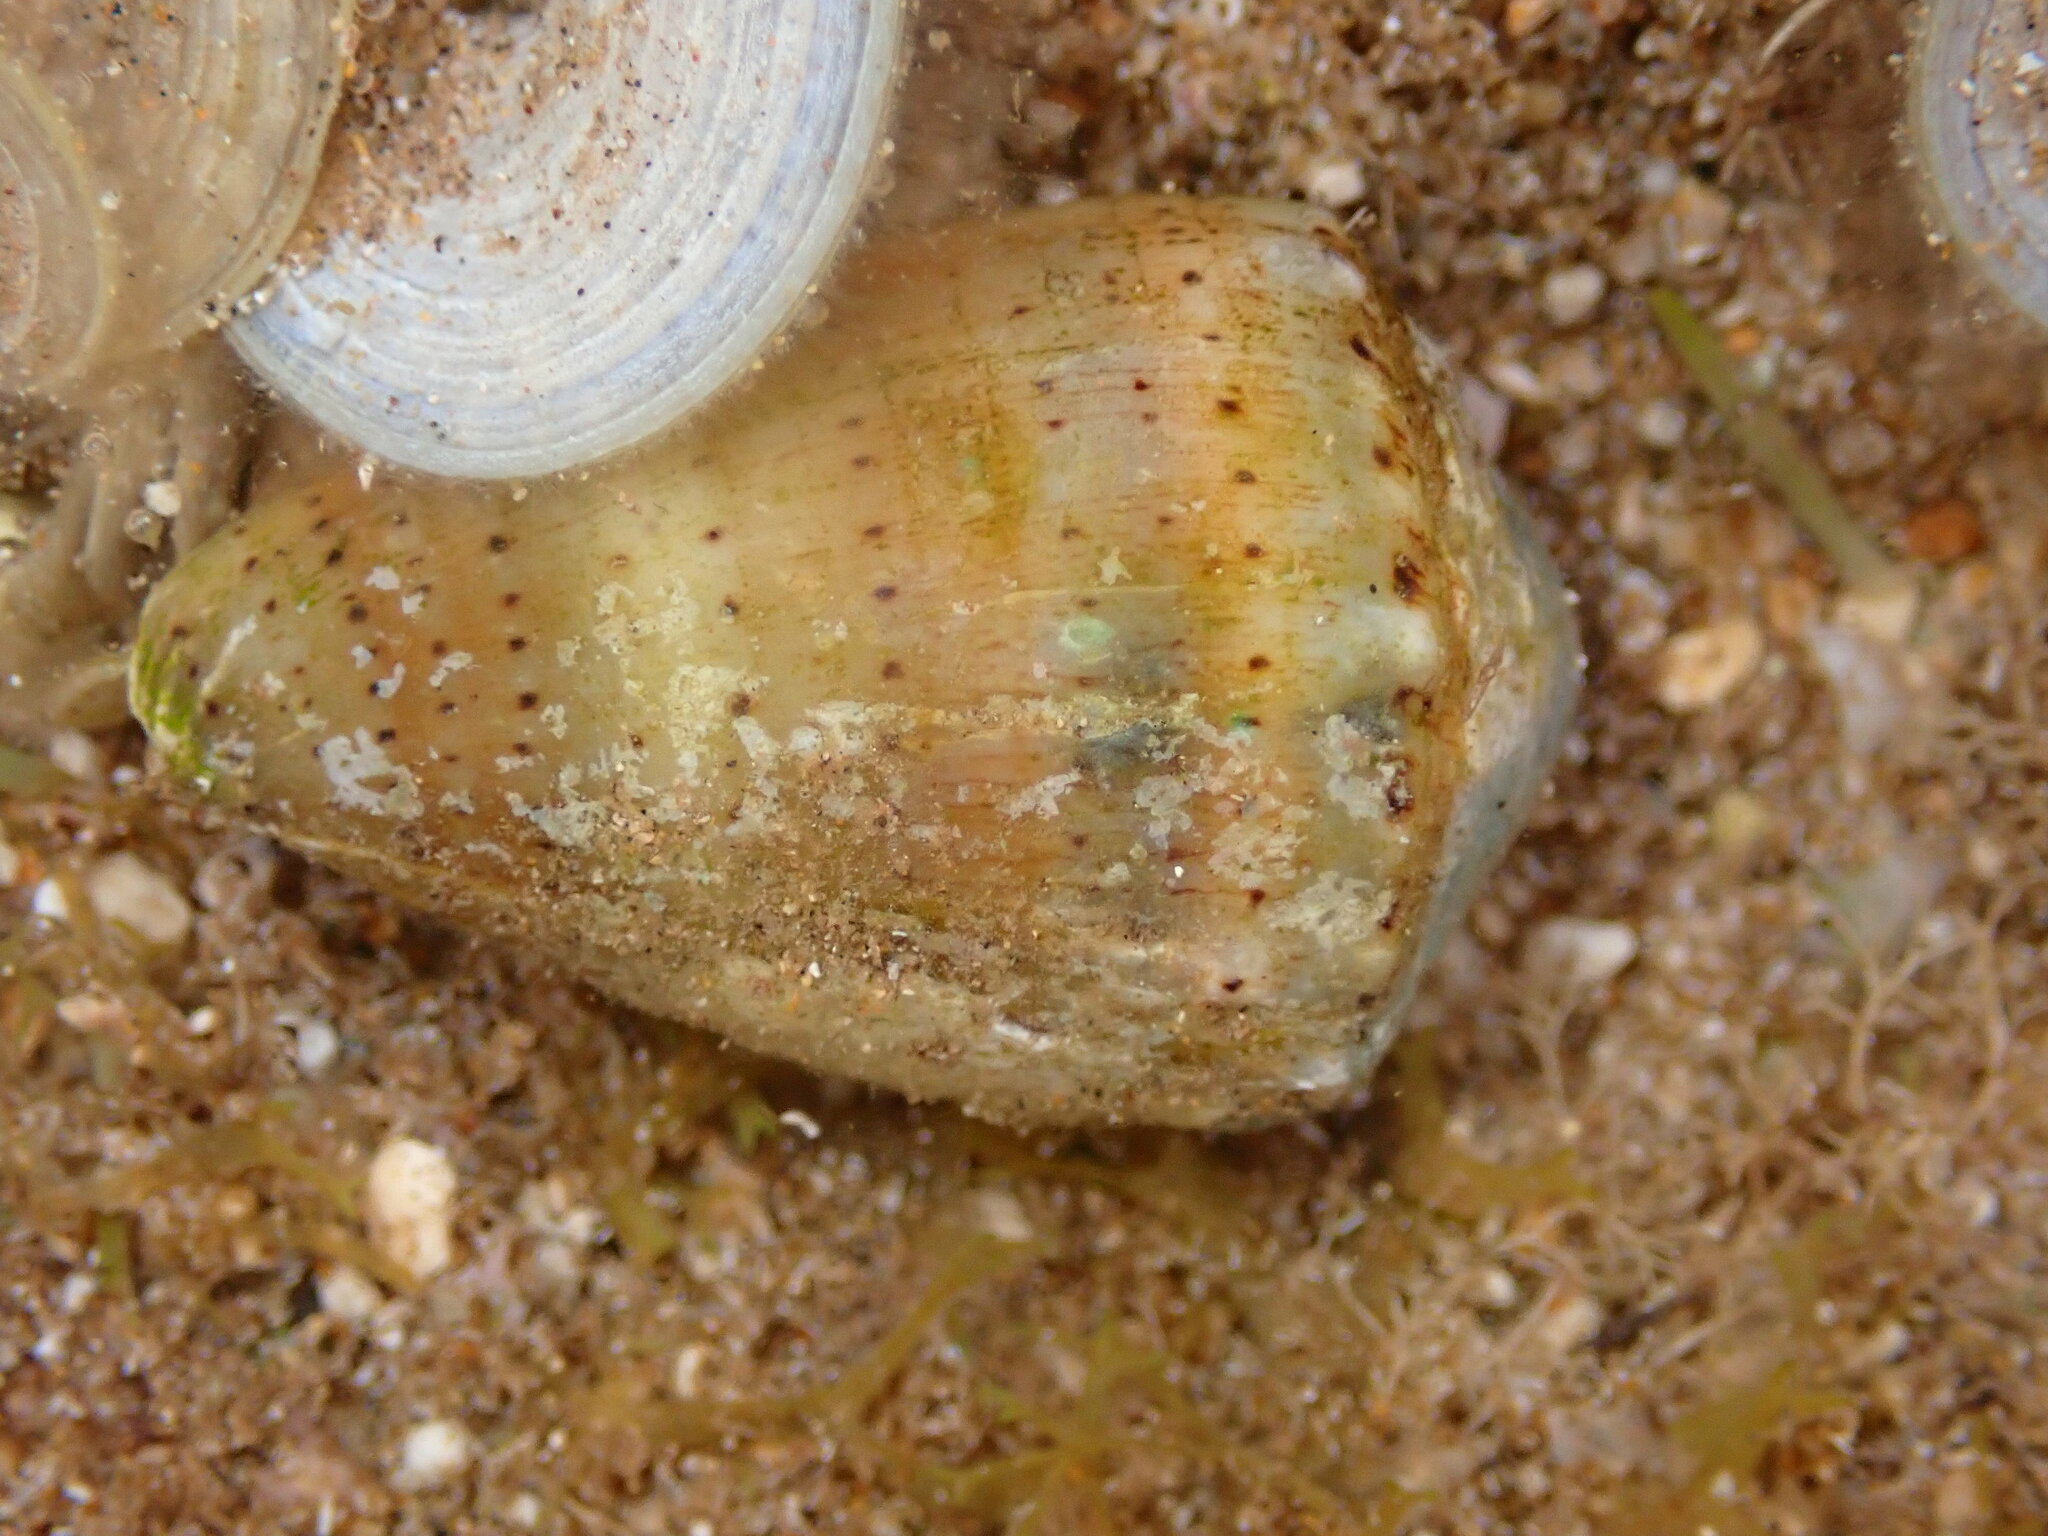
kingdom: Animalia
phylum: Mollusca
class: Gastropoda
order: Neogastropoda
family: Conidae
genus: Conus
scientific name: Conus abbreviatus
